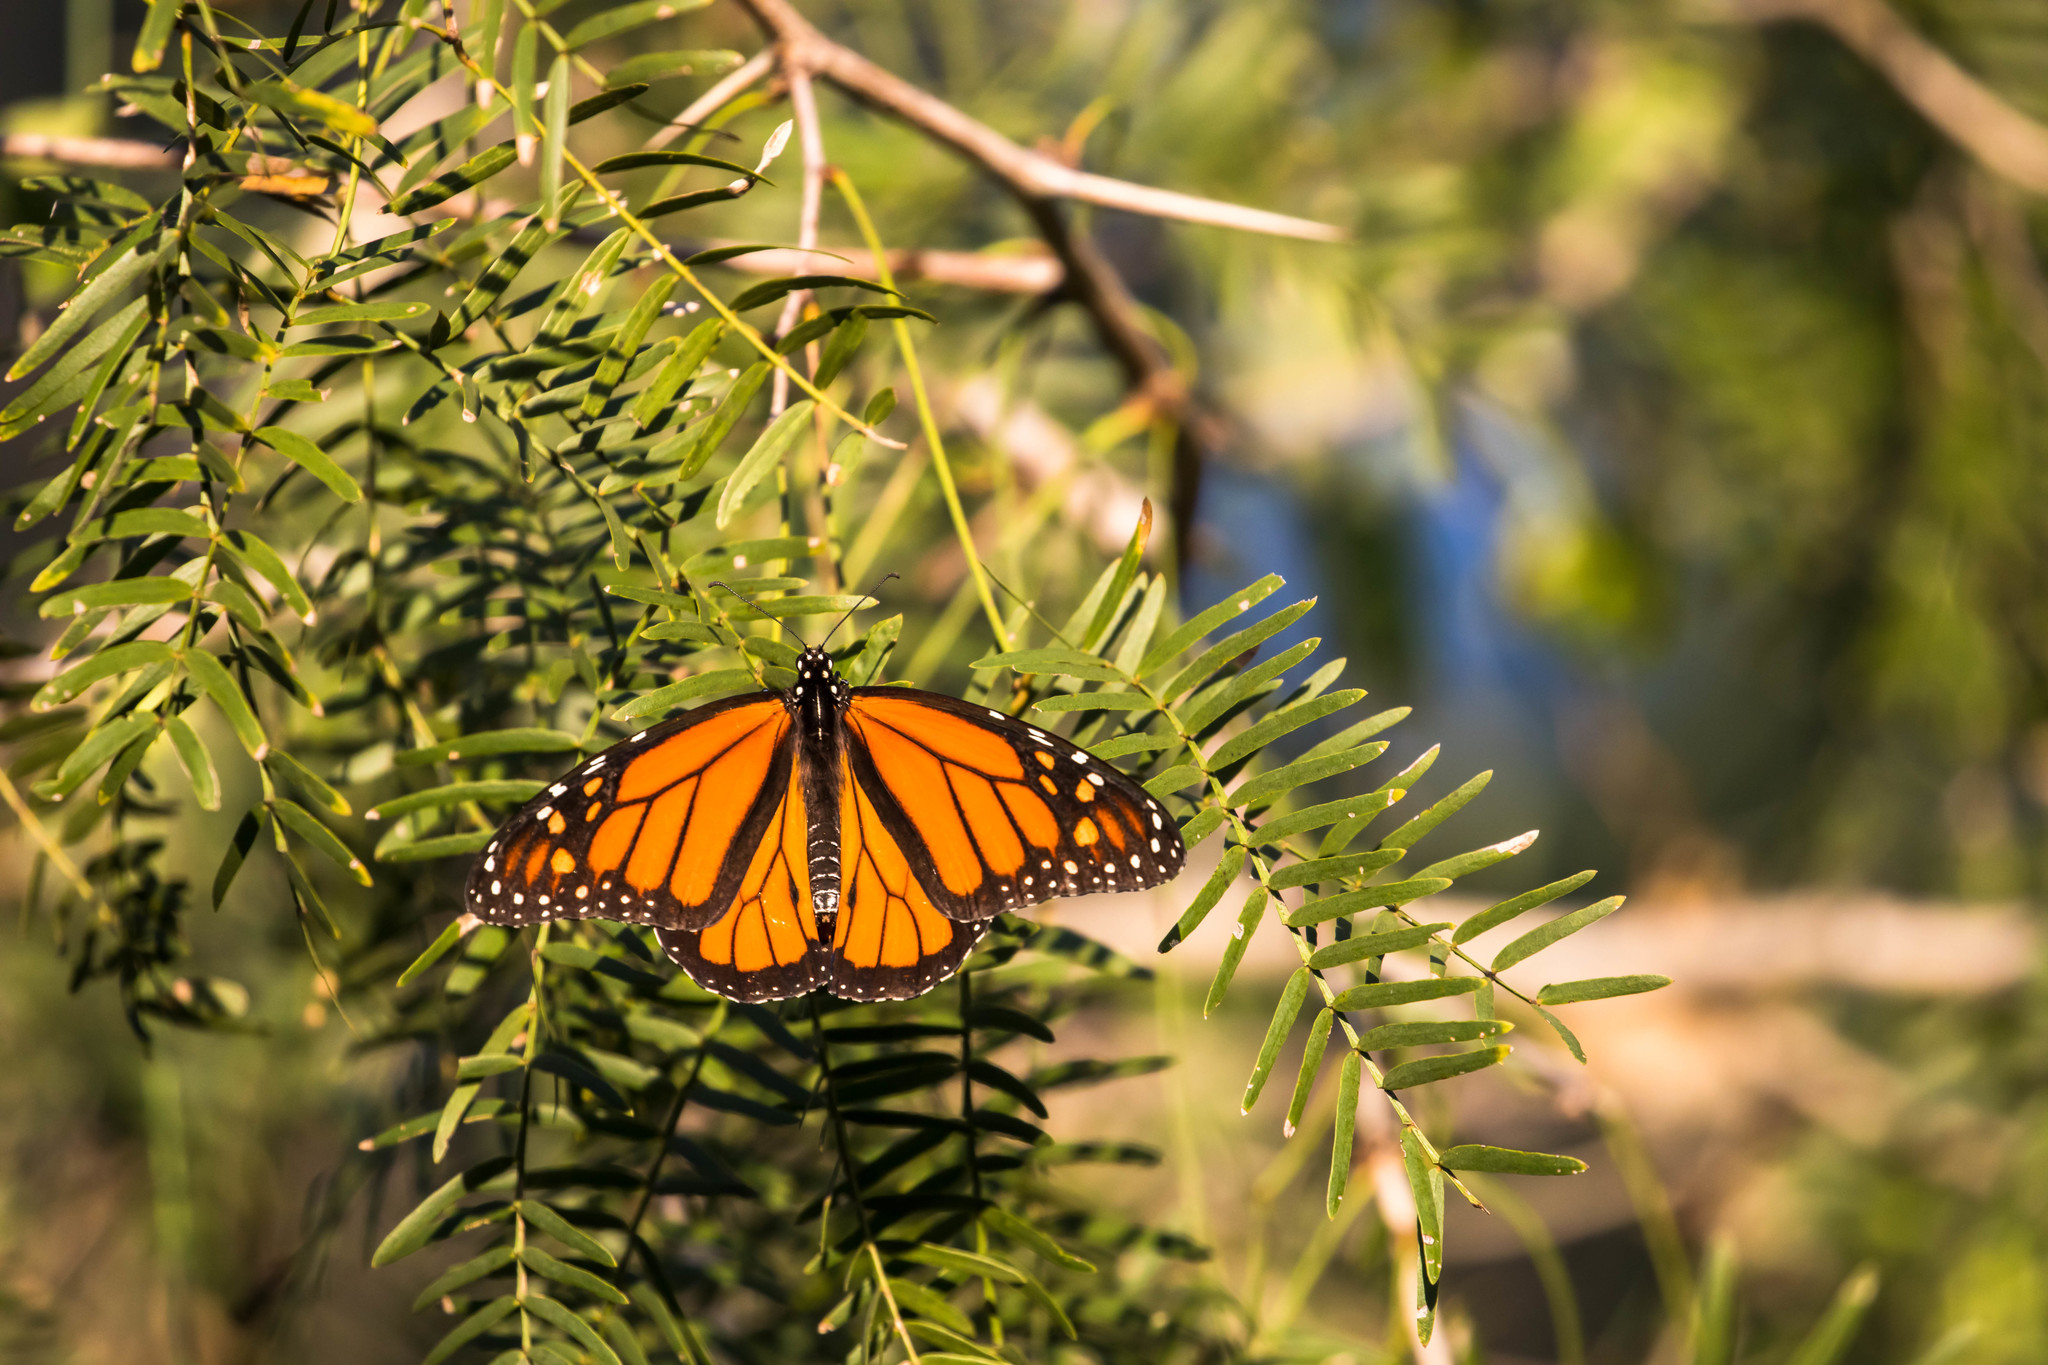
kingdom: Animalia
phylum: Arthropoda
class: Insecta
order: Lepidoptera
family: Nymphalidae
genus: Danaus
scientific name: Danaus plexippus
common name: Monarch
